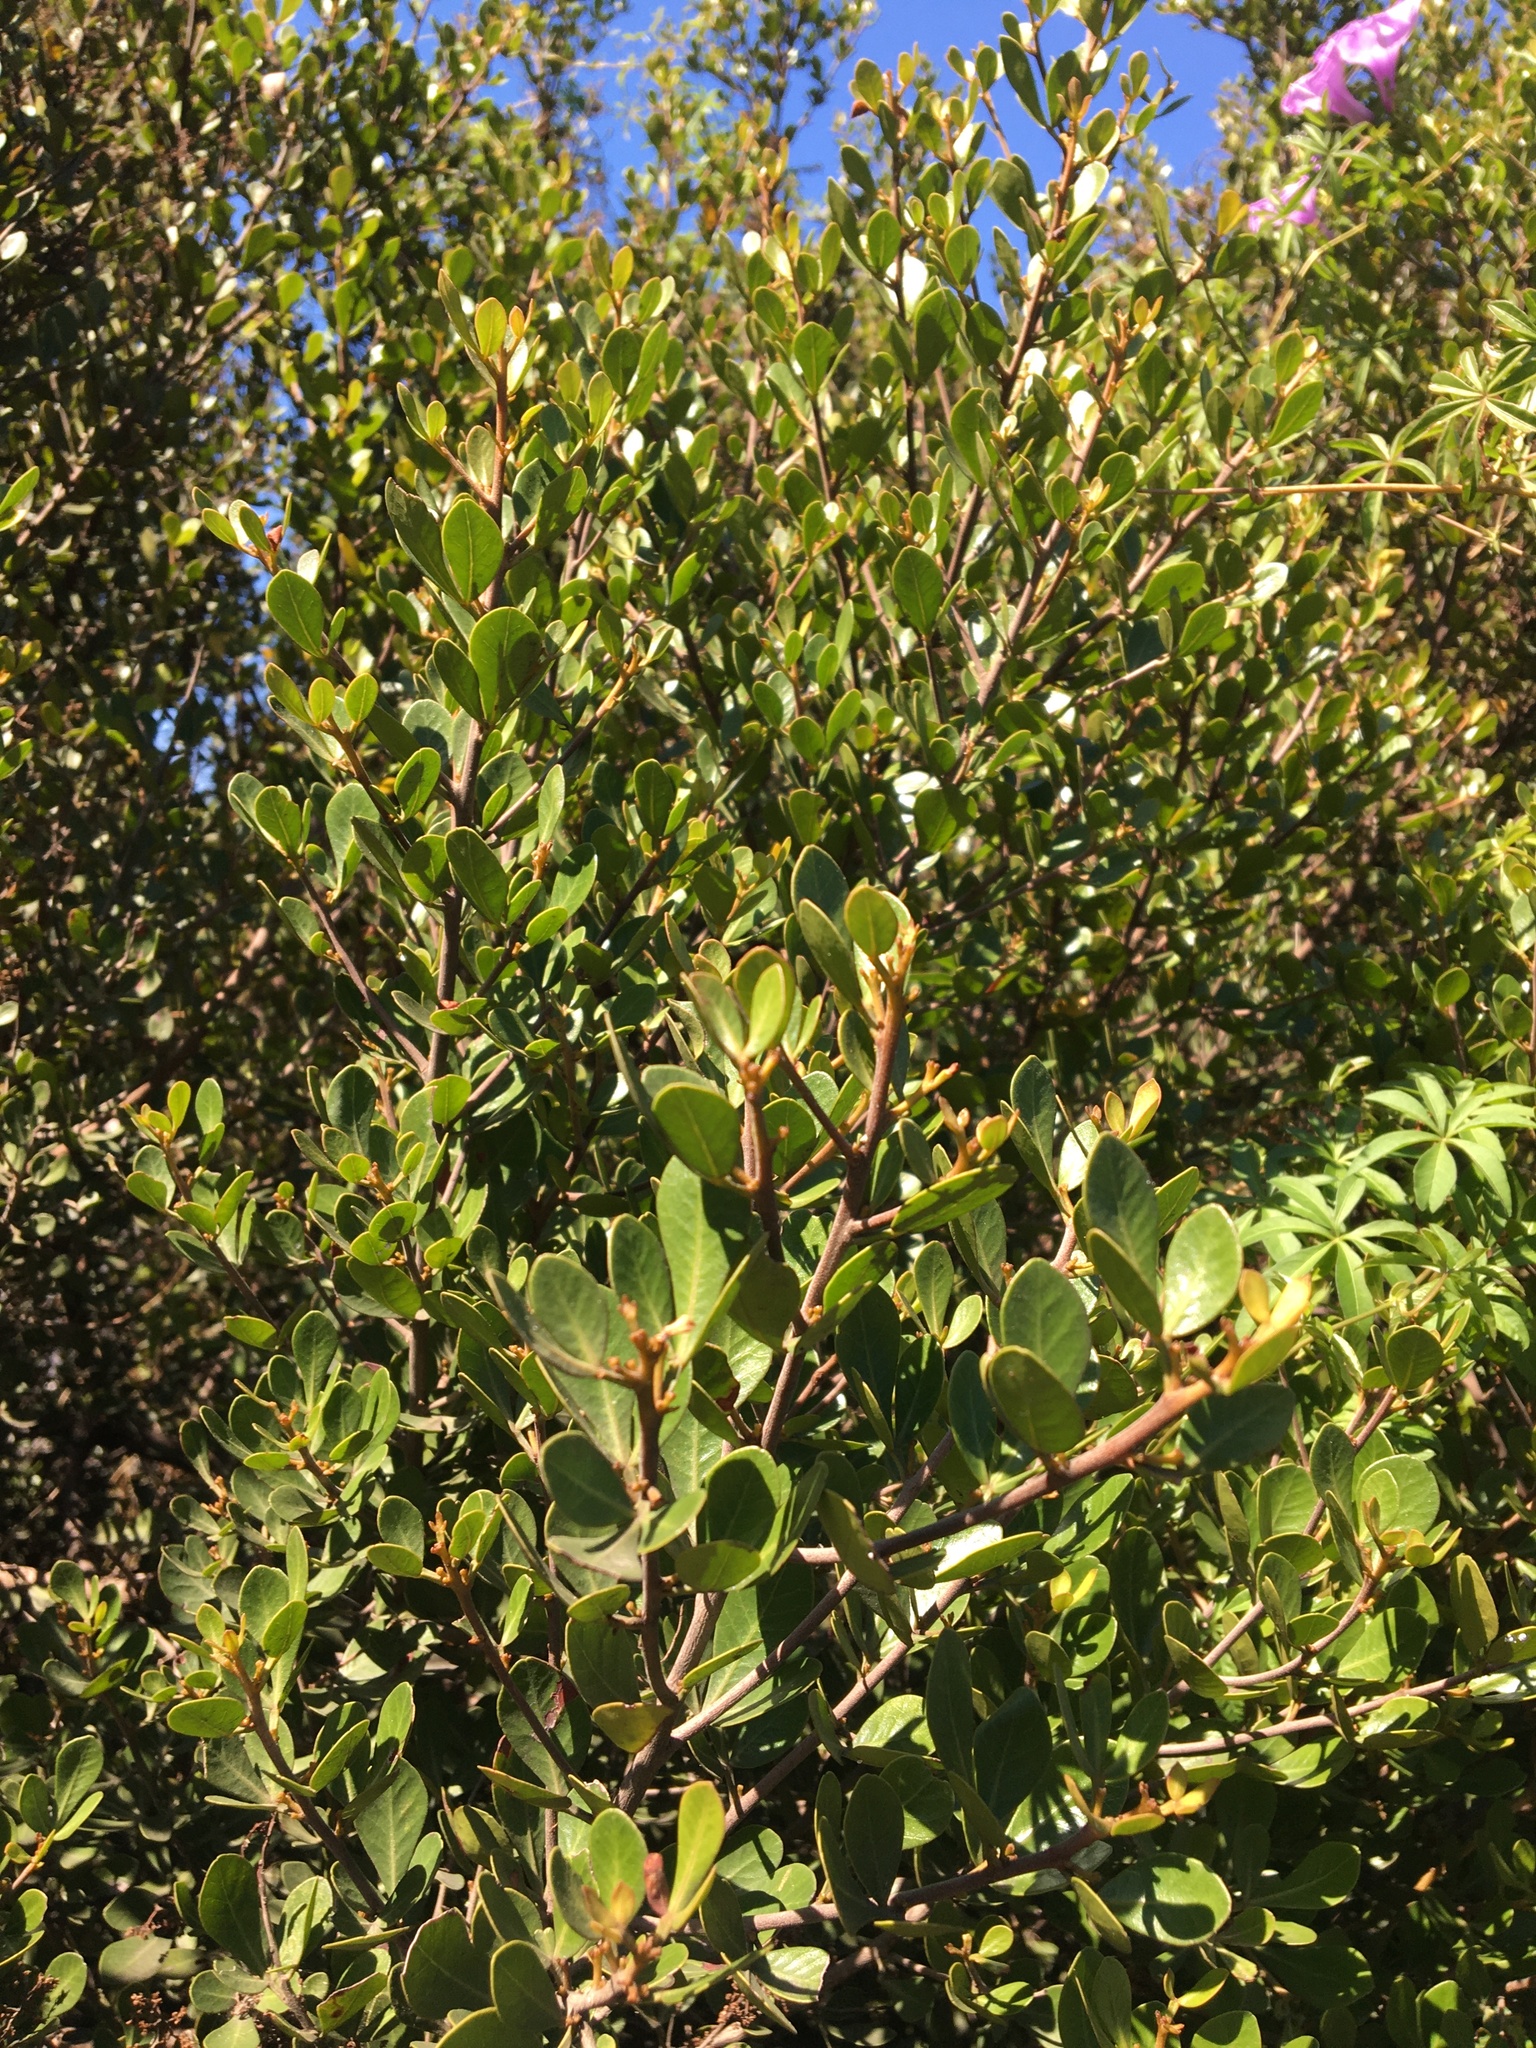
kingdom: Plantae
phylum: Tracheophyta
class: Magnoliopsida
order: Sapindales
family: Anacardiaceae
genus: Searsia
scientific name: Searsia lucida
